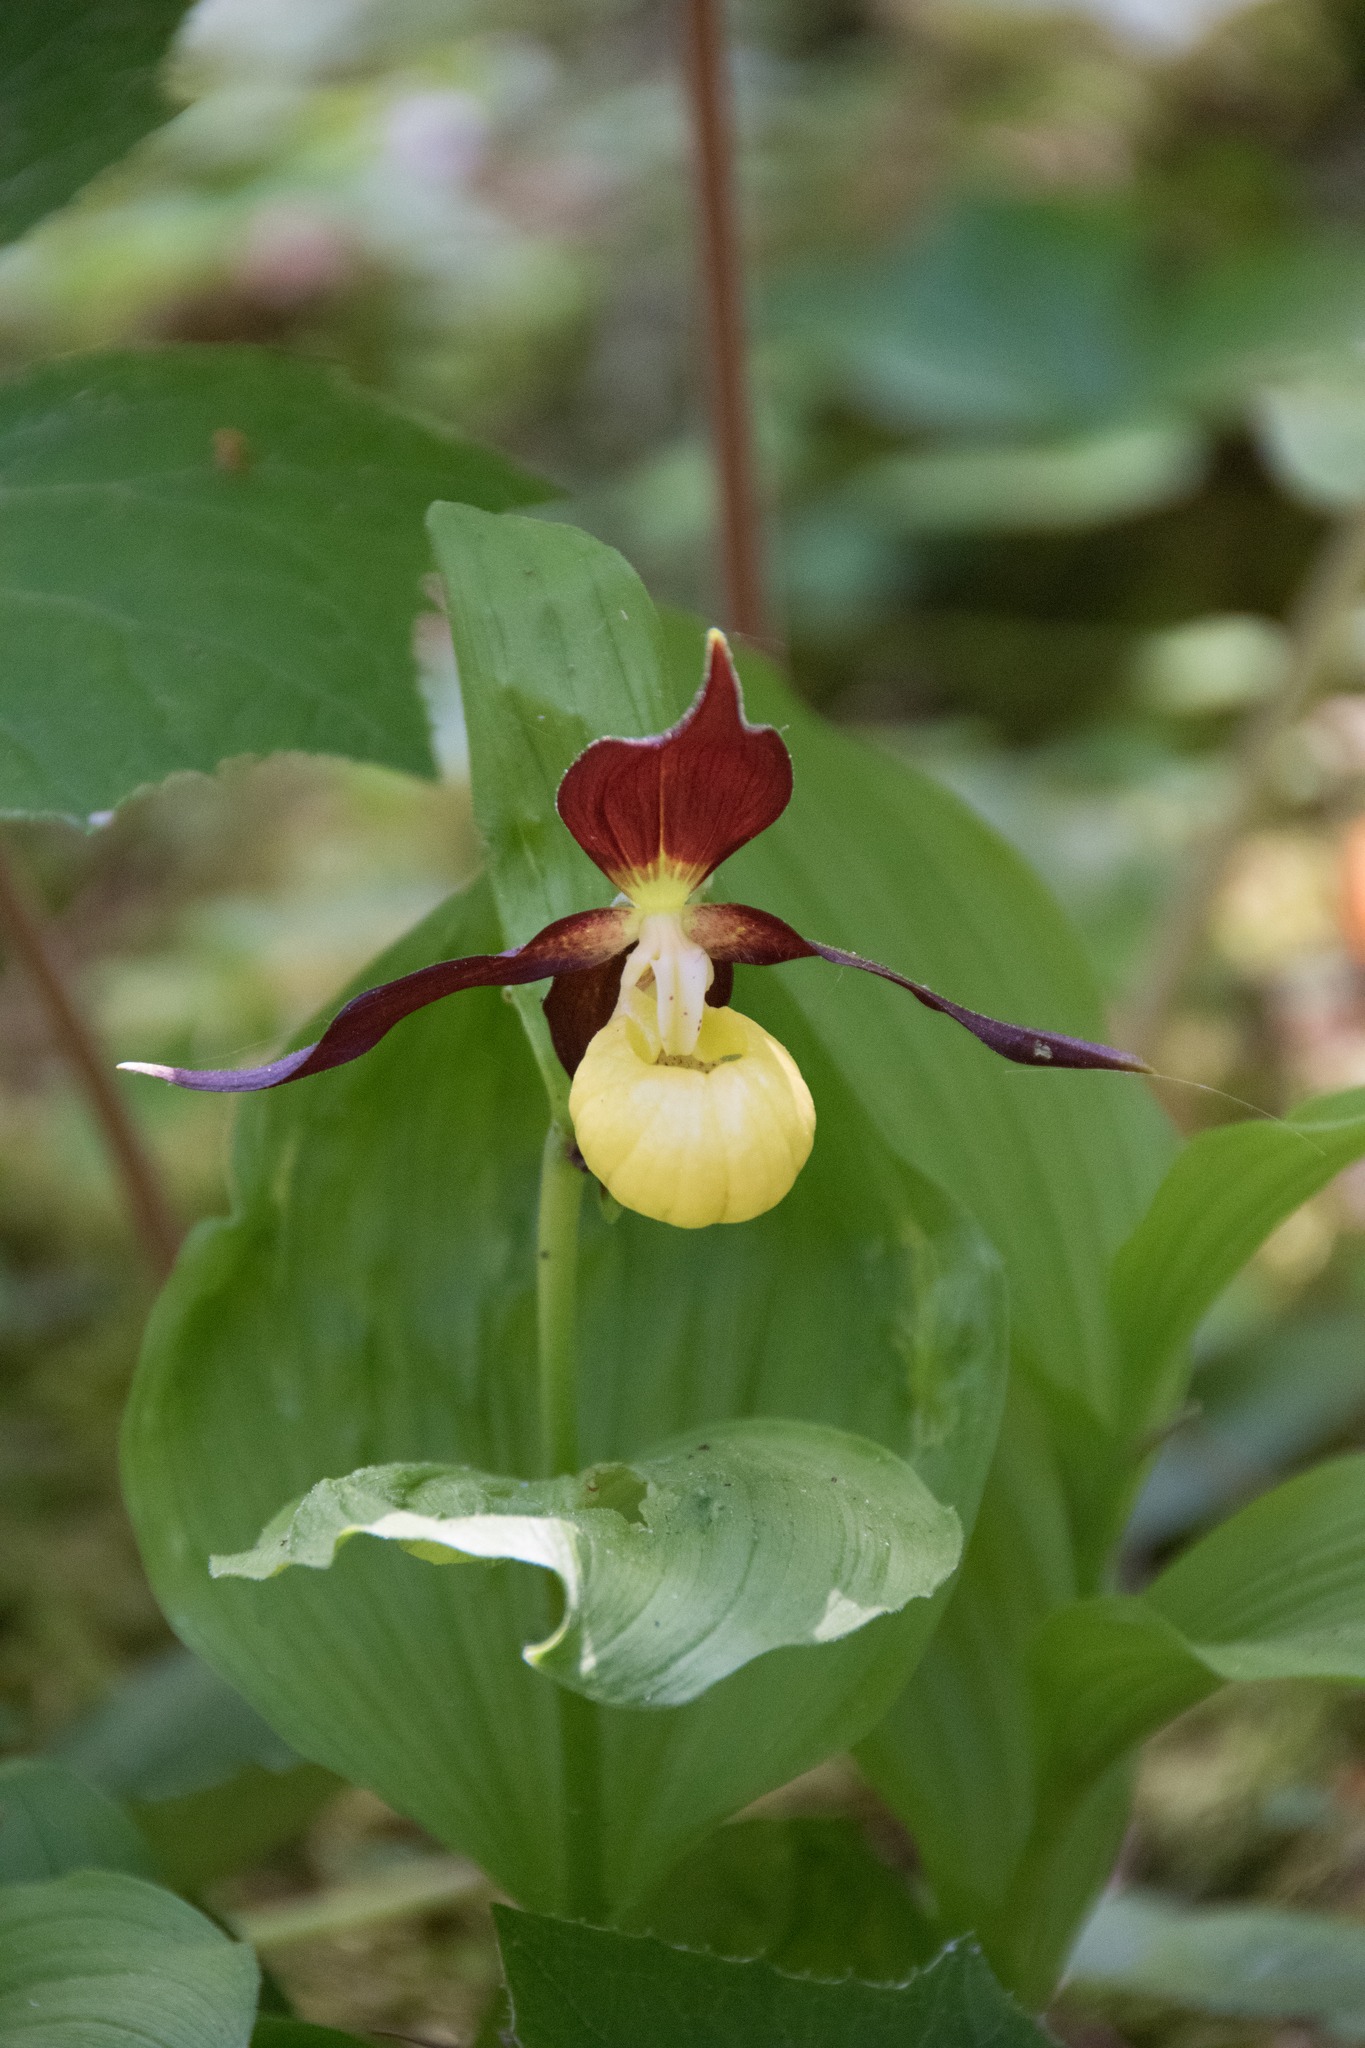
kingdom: Plantae
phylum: Tracheophyta
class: Liliopsida
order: Asparagales
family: Orchidaceae
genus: Cypripedium
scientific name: Cypripedium calceolus
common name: Lady's-slipper
